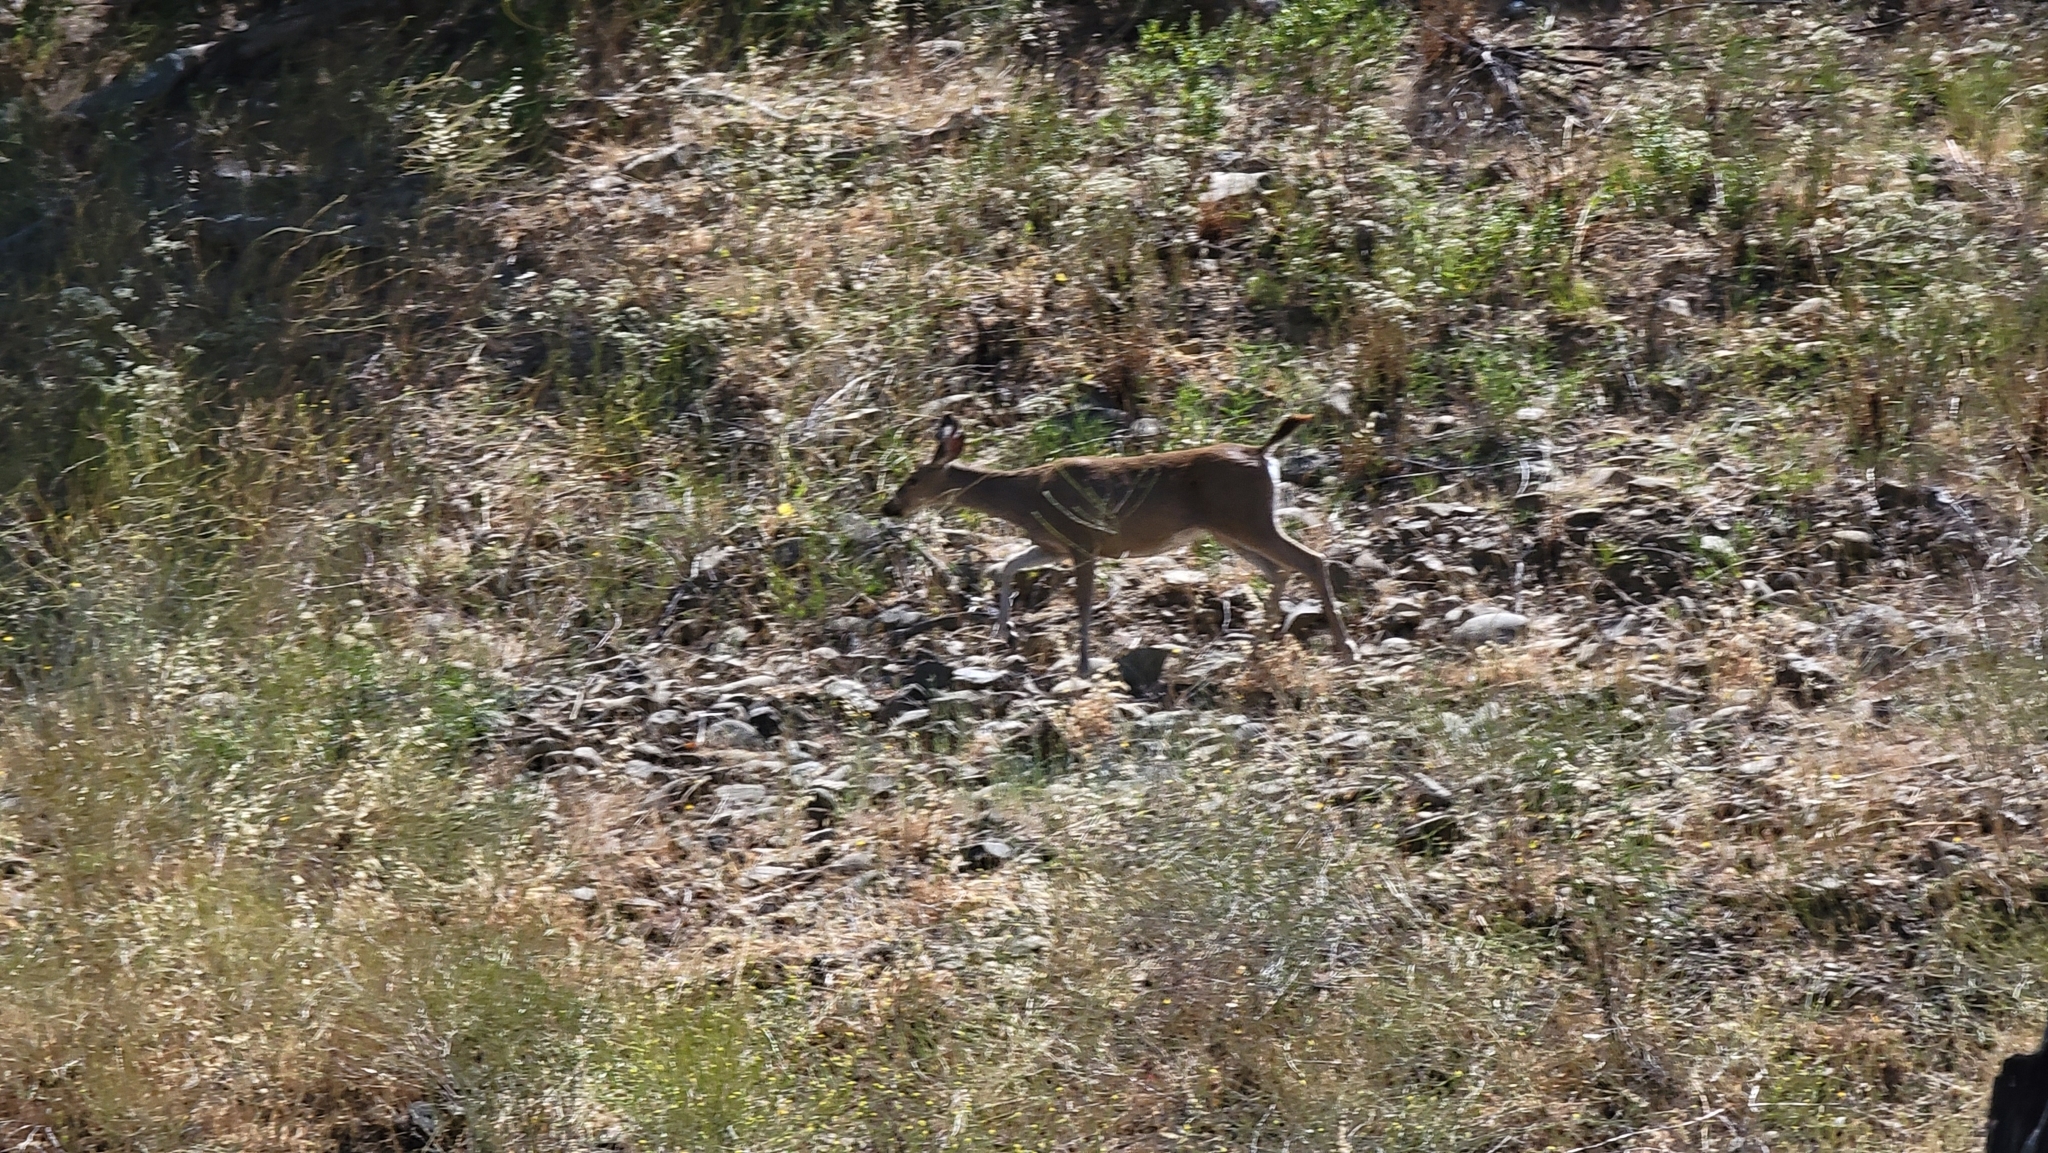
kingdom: Animalia
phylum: Chordata
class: Mammalia
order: Artiodactyla
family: Cervidae
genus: Odocoileus
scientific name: Odocoileus hemionus
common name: Mule deer
